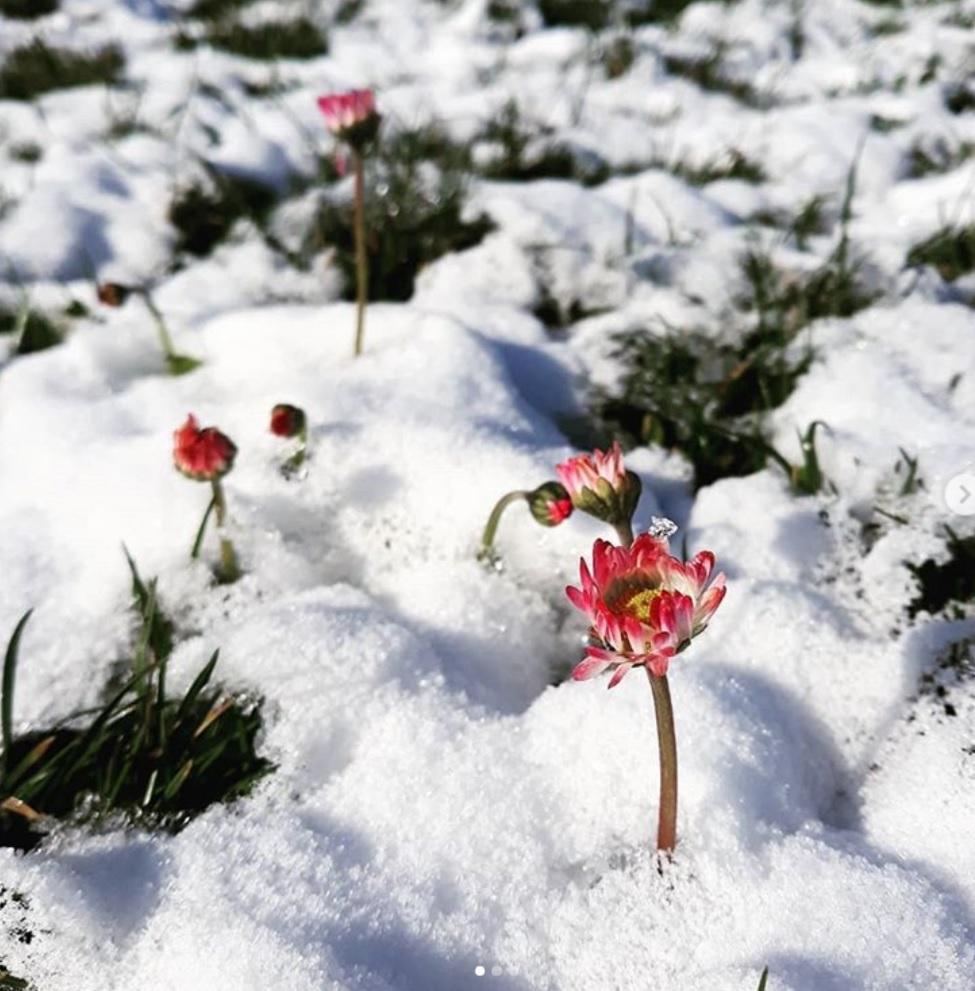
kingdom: Plantae
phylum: Tracheophyta
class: Magnoliopsida
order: Asterales
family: Asteraceae
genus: Bellis
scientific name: Bellis perennis
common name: Lawndaisy
